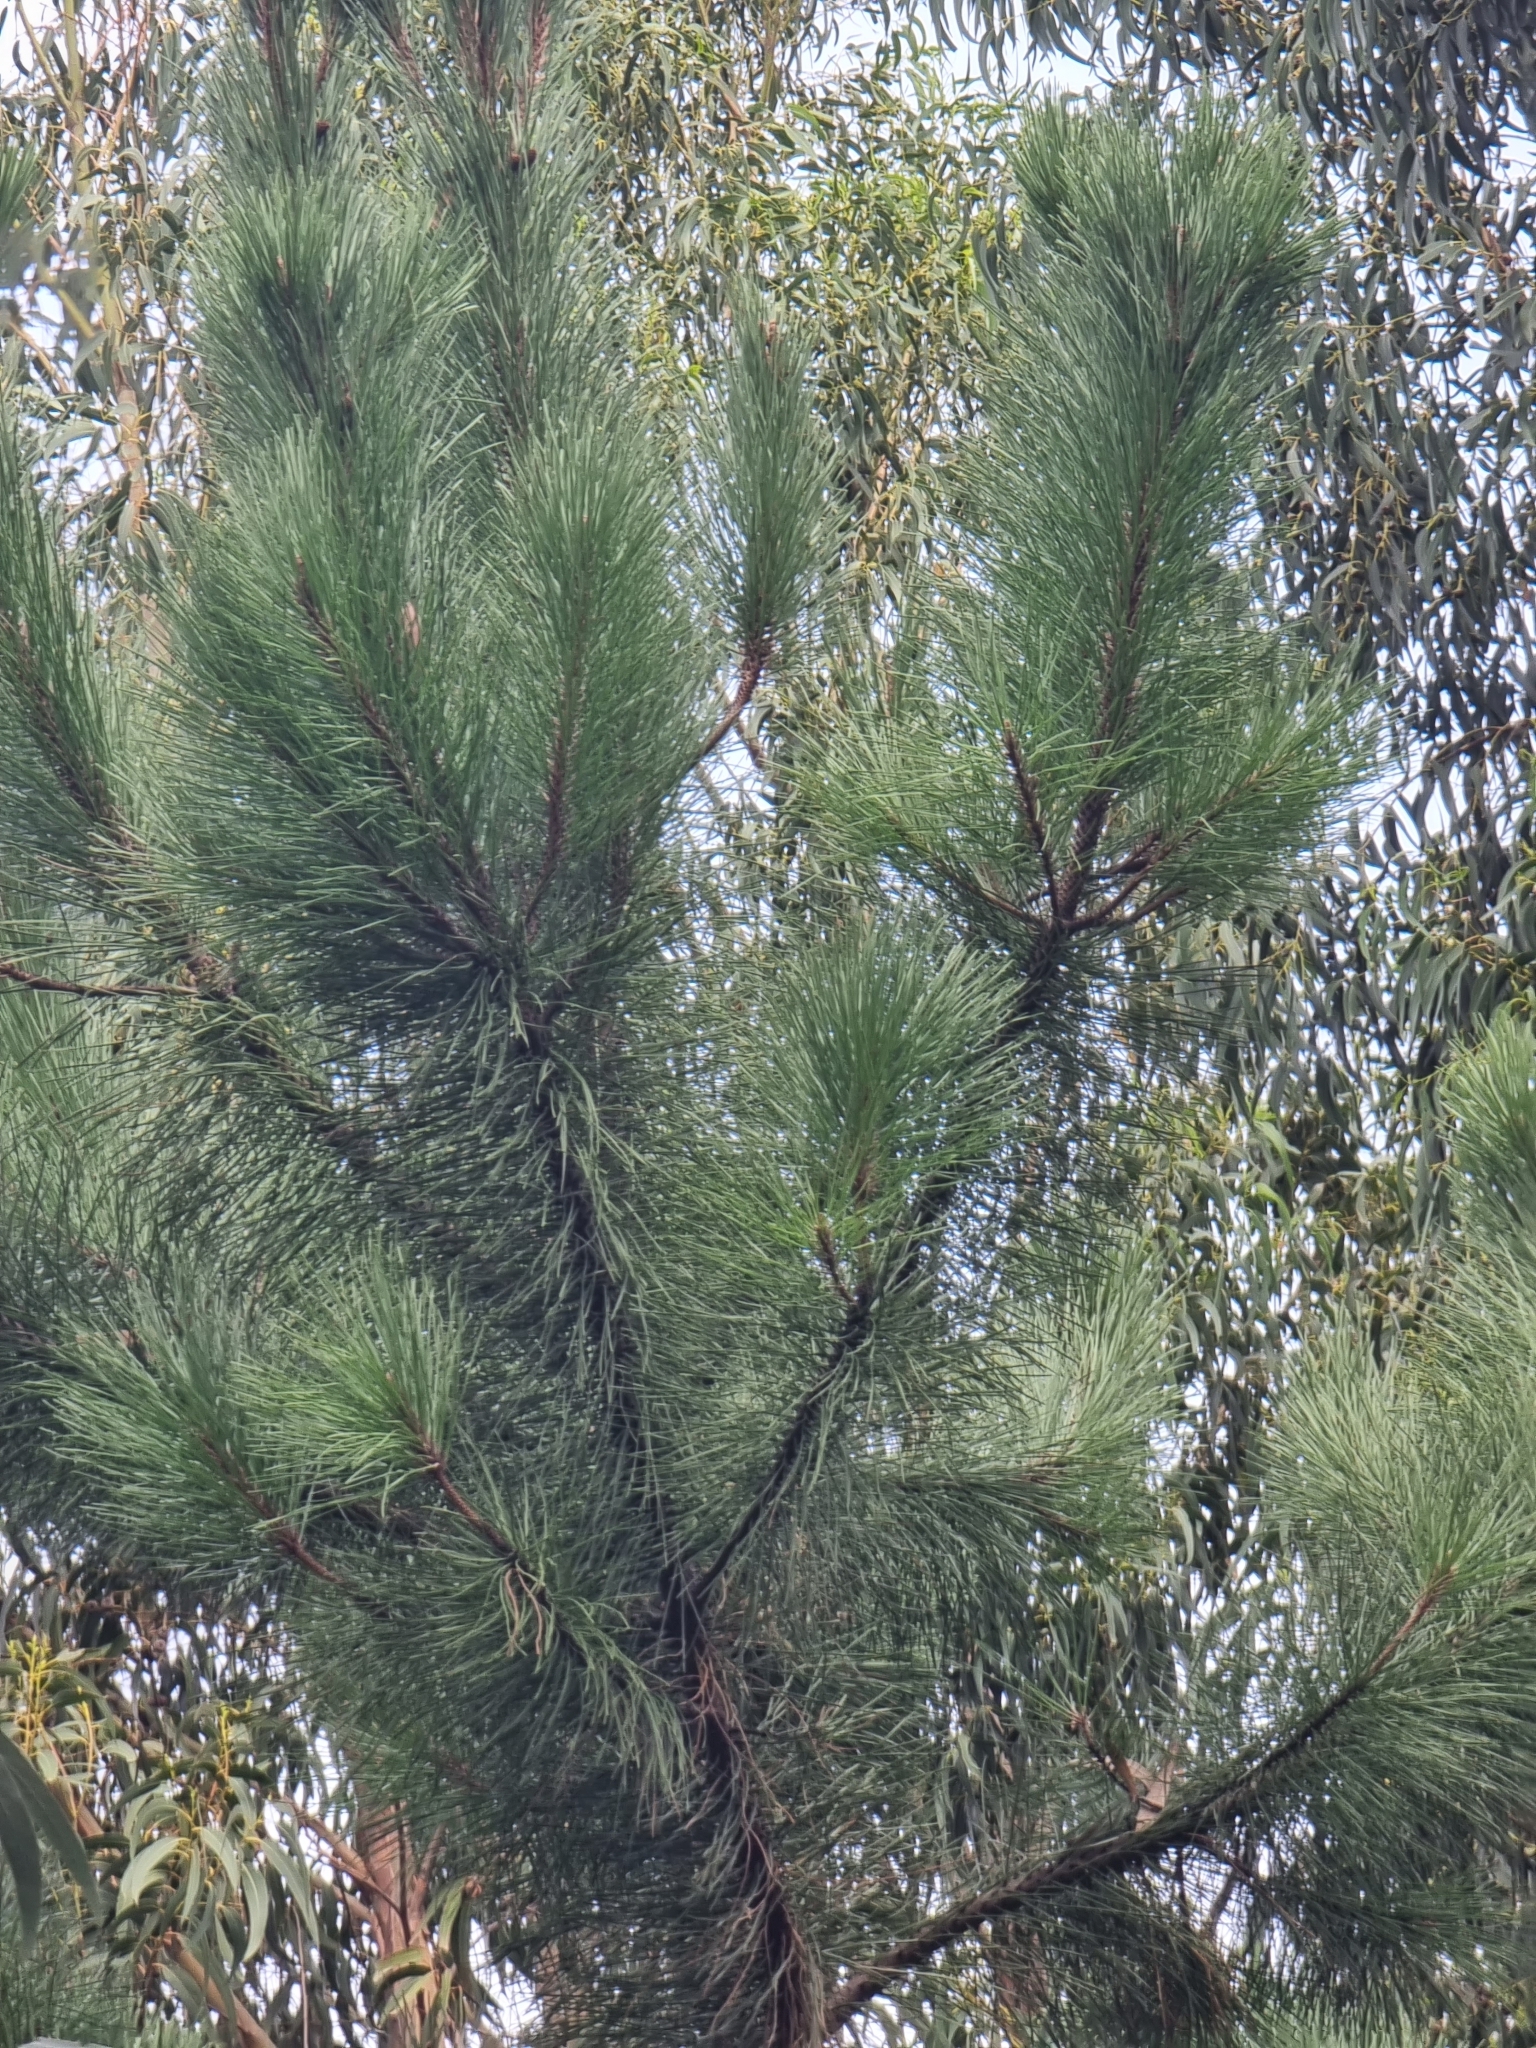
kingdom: Plantae
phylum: Tracheophyta
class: Pinopsida
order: Pinales
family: Pinaceae
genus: Pinus
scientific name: Pinus pinaster
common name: Maritime pine
